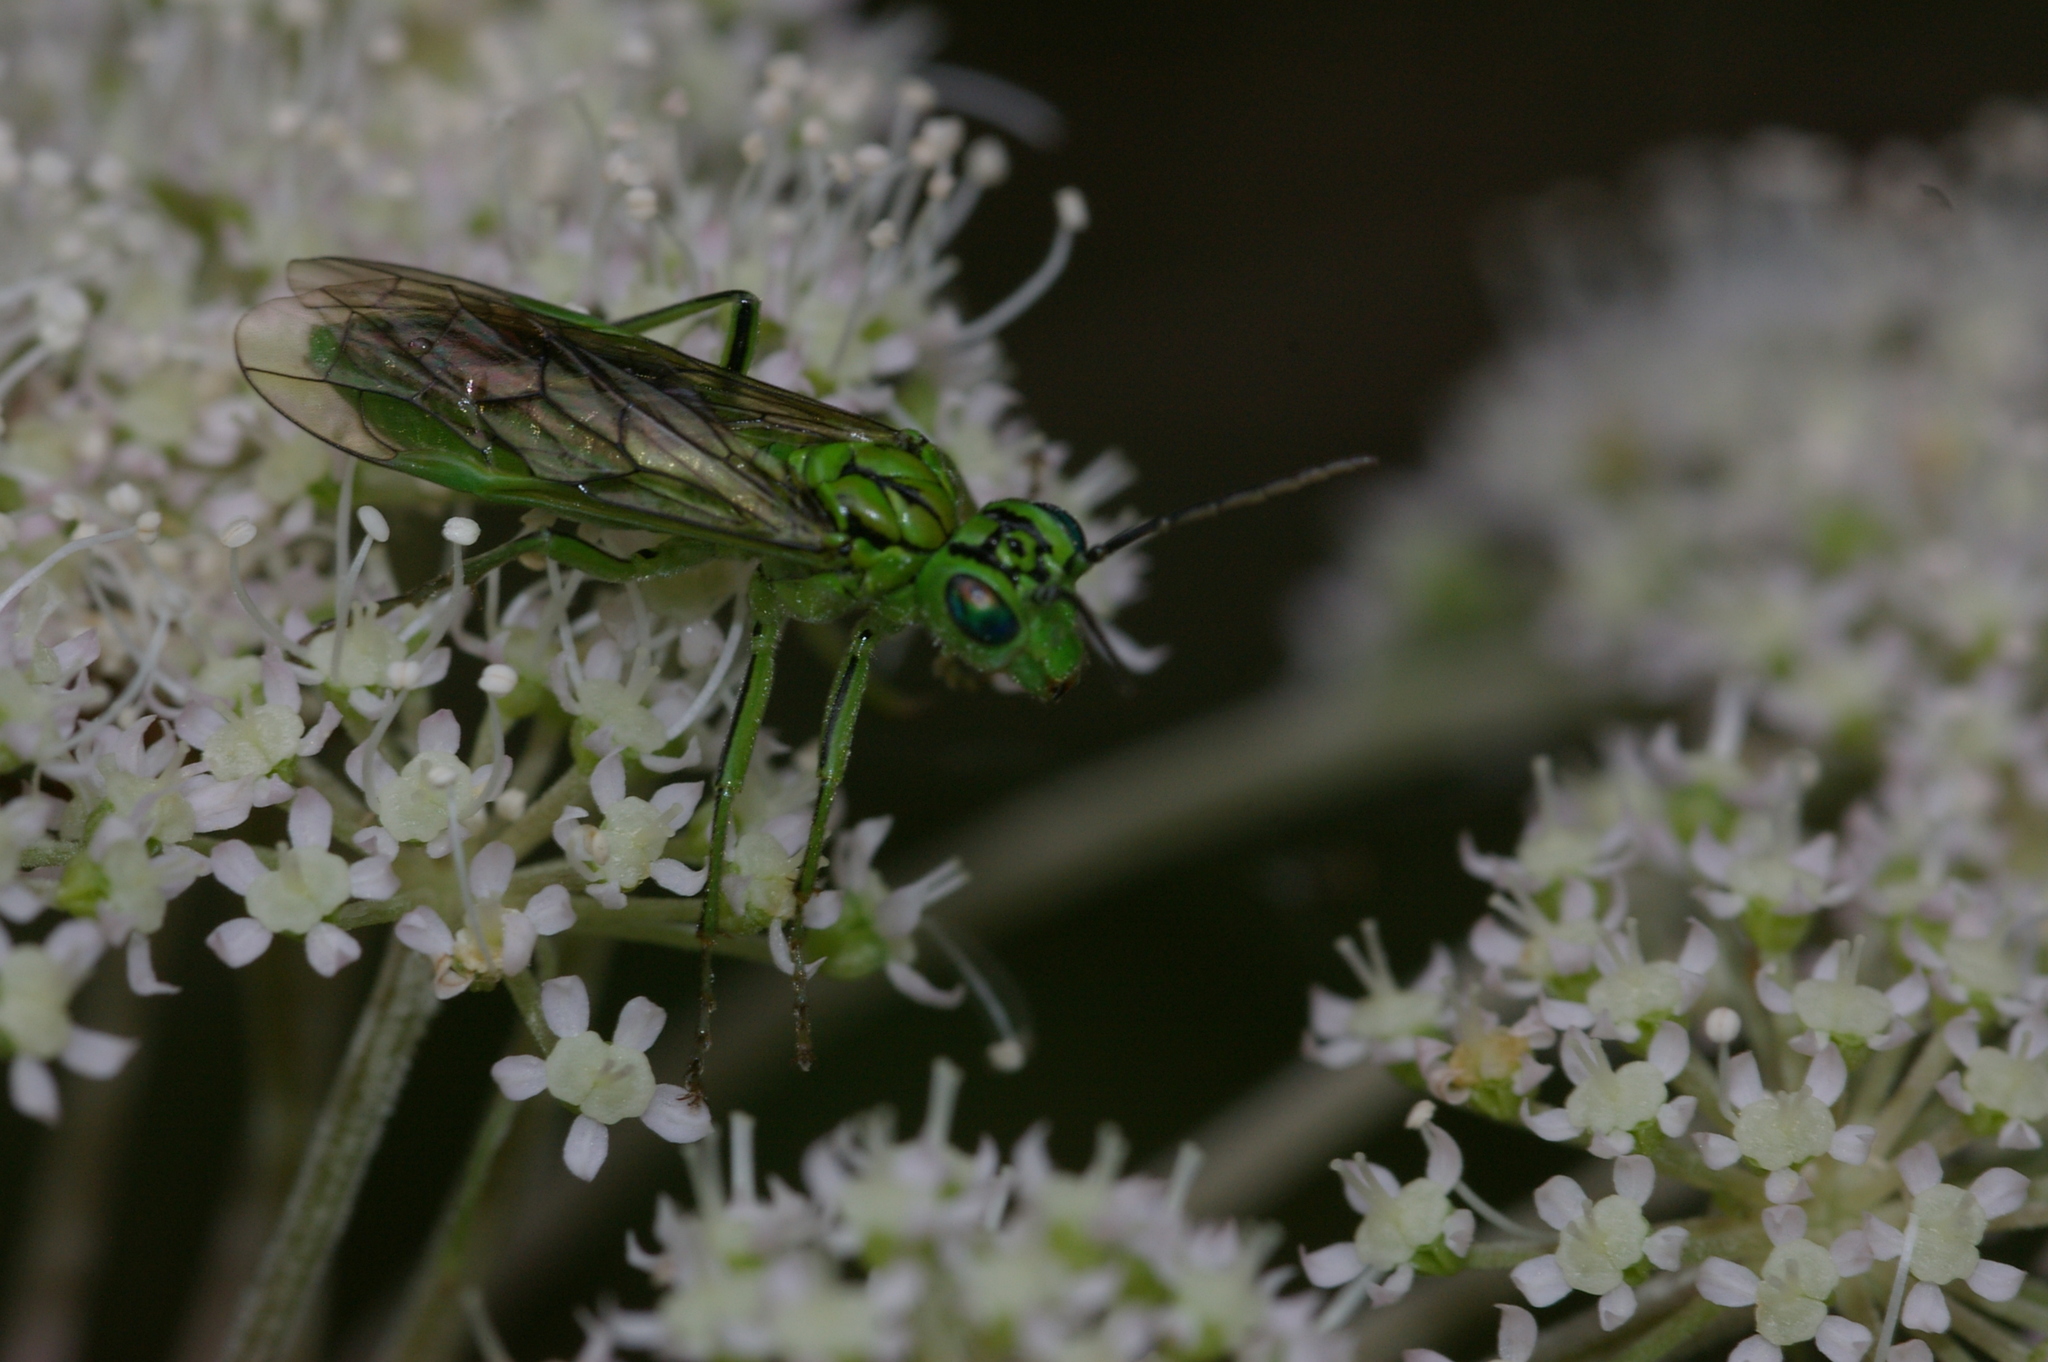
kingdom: Animalia
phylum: Arthropoda
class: Insecta
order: Hymenoptera
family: Tenthredinidae
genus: Tenthredo
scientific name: Tenthredo olivacea
